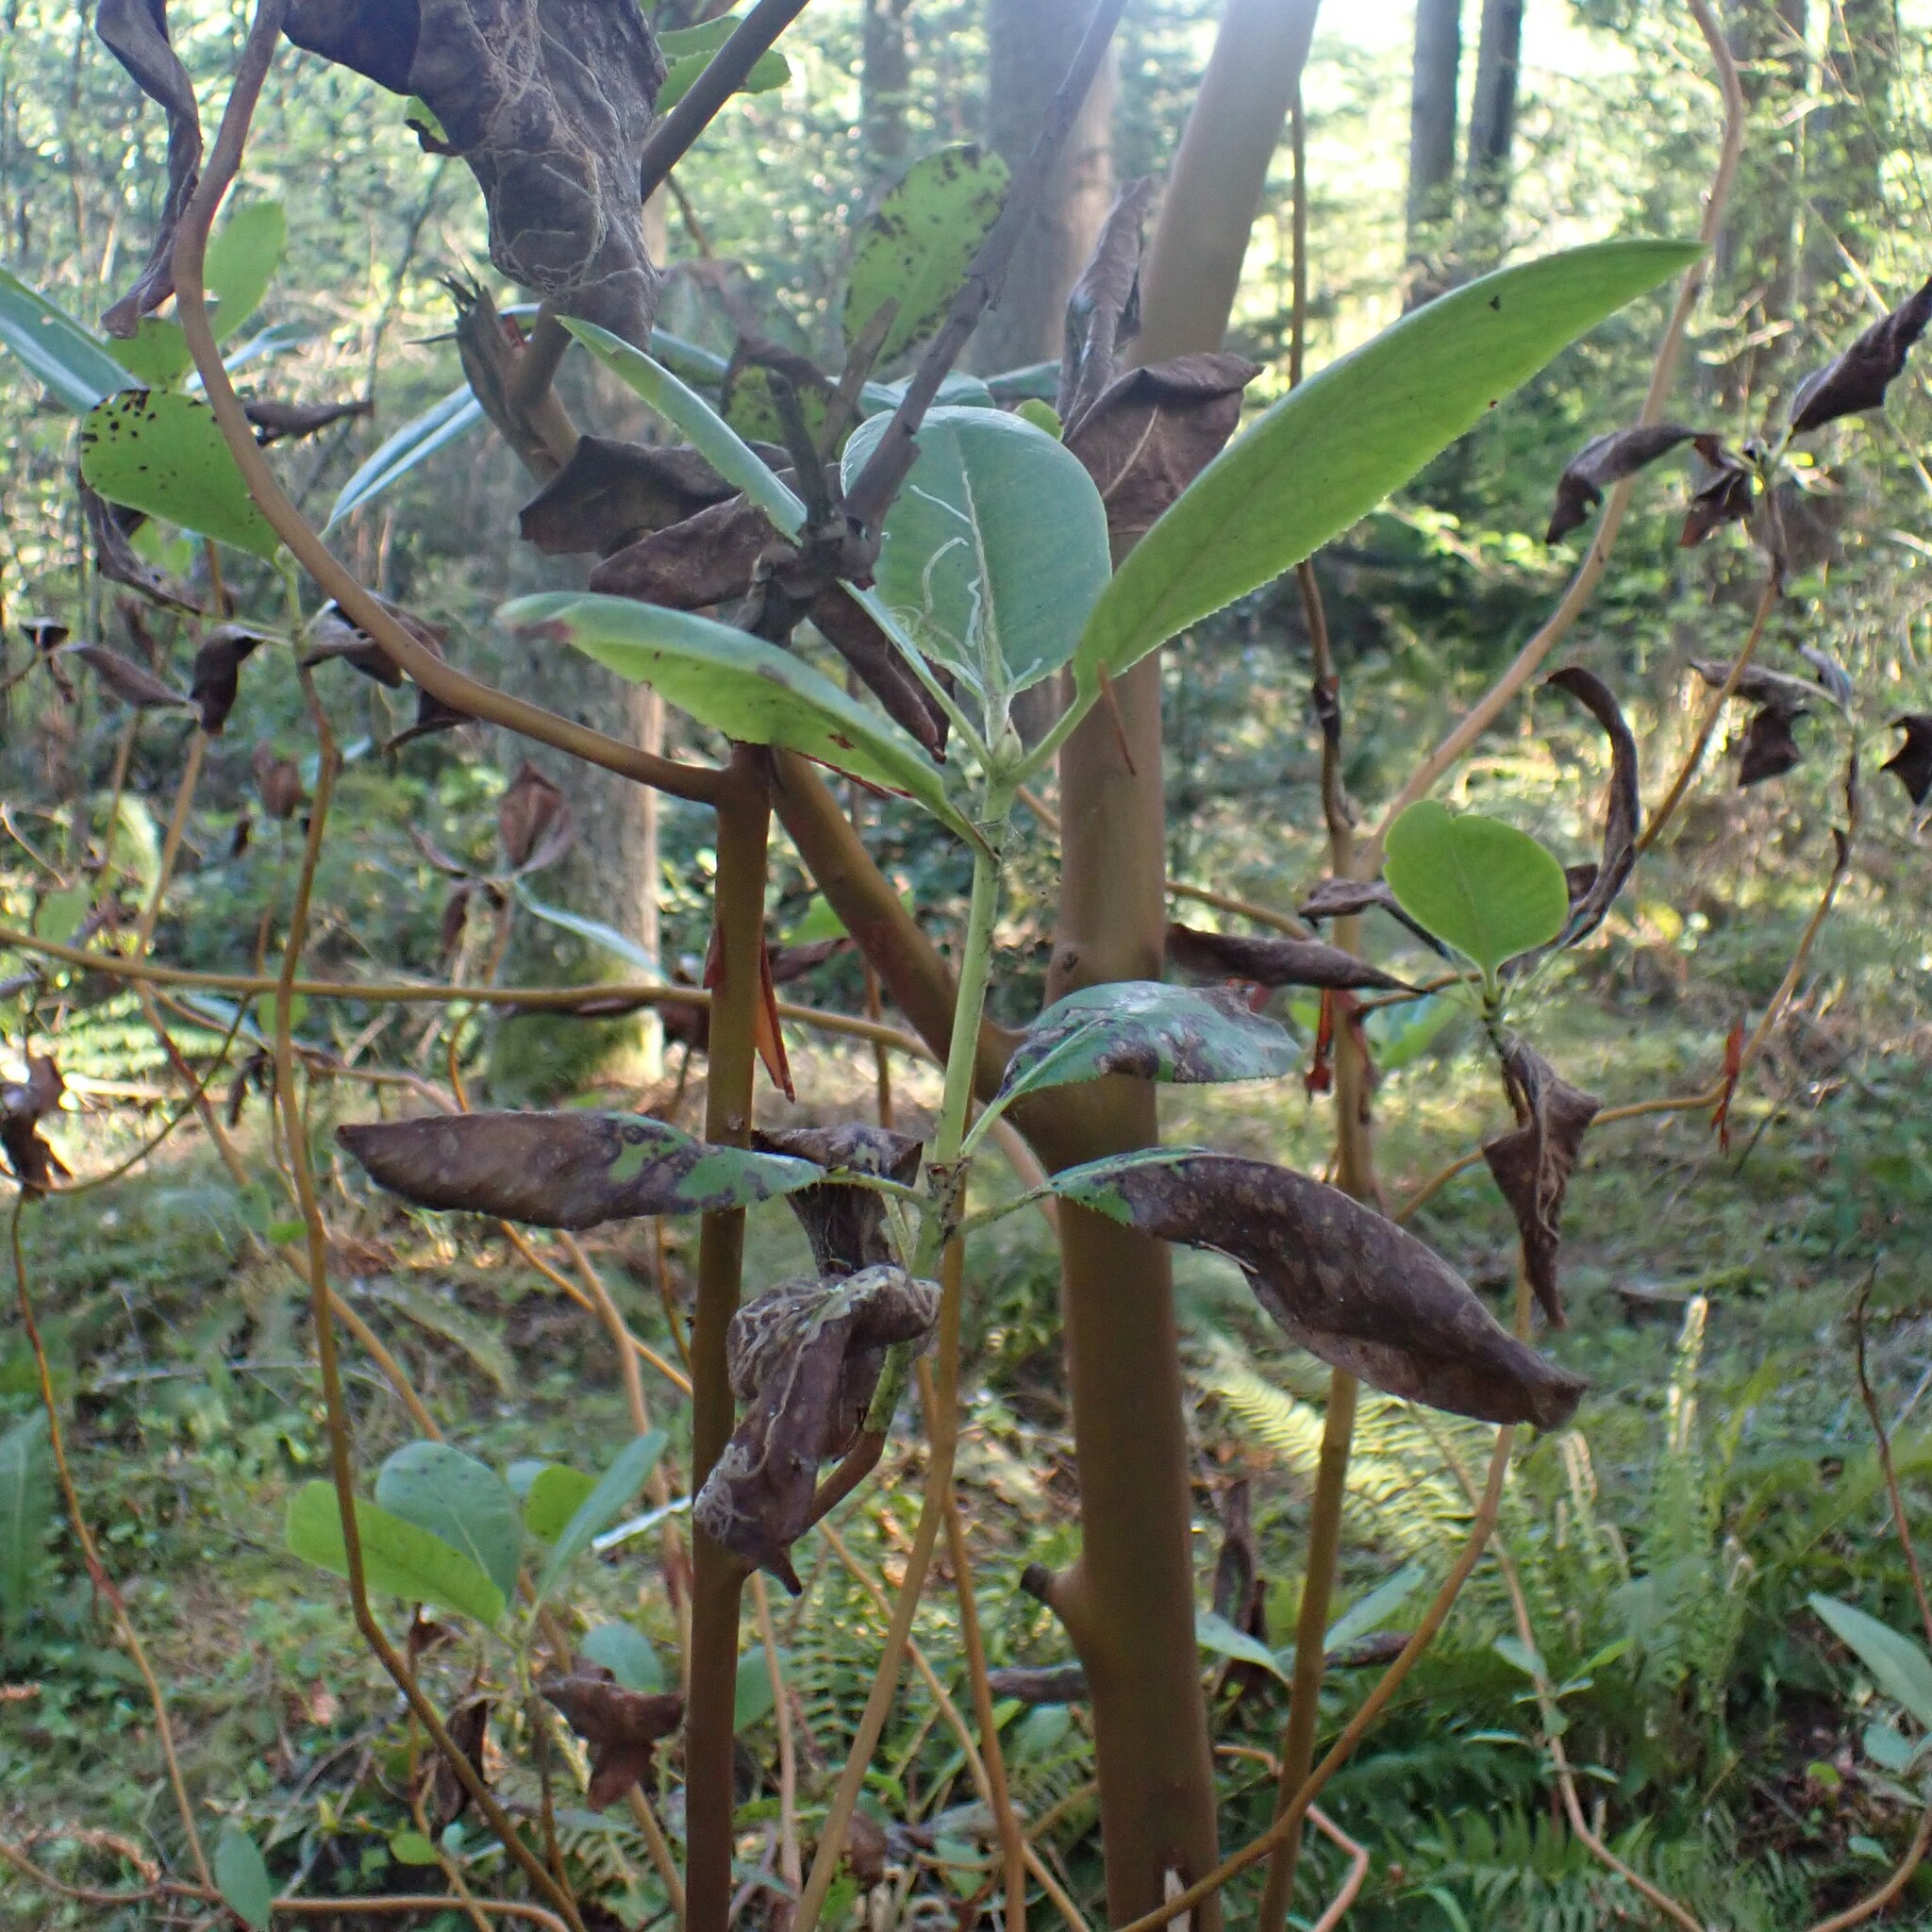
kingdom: Plantae
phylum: Tracheophyta
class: Magnoliopsida
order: Ericales
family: Ericaceae
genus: Arbutus
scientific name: Arbutus menziesii
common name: Pacific madrone
